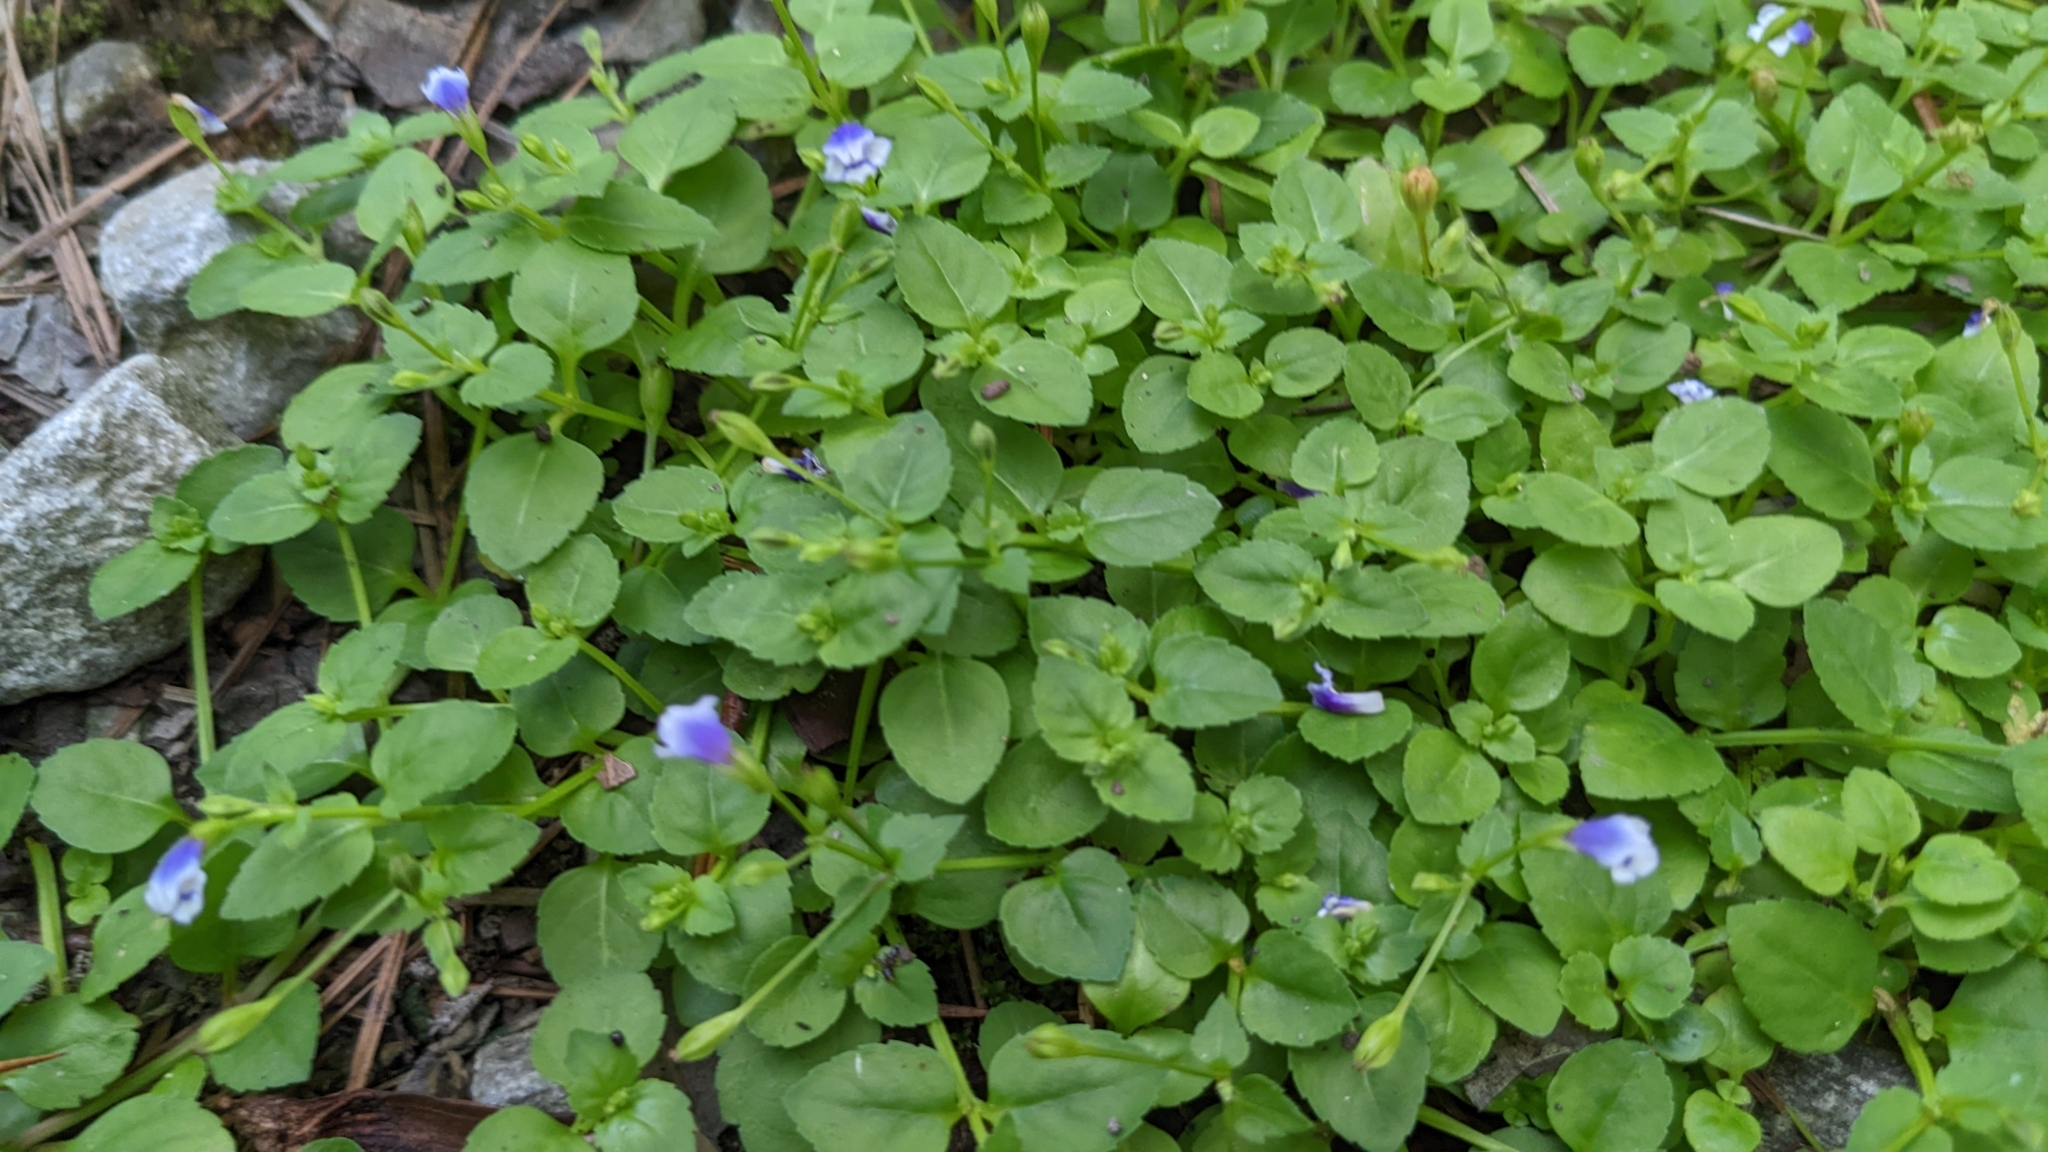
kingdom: Plantae
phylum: Tracheophyta
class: Magnoliopsida
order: Lamiales
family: Linderniaceae
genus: Torenia
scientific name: Torenia crustacea
